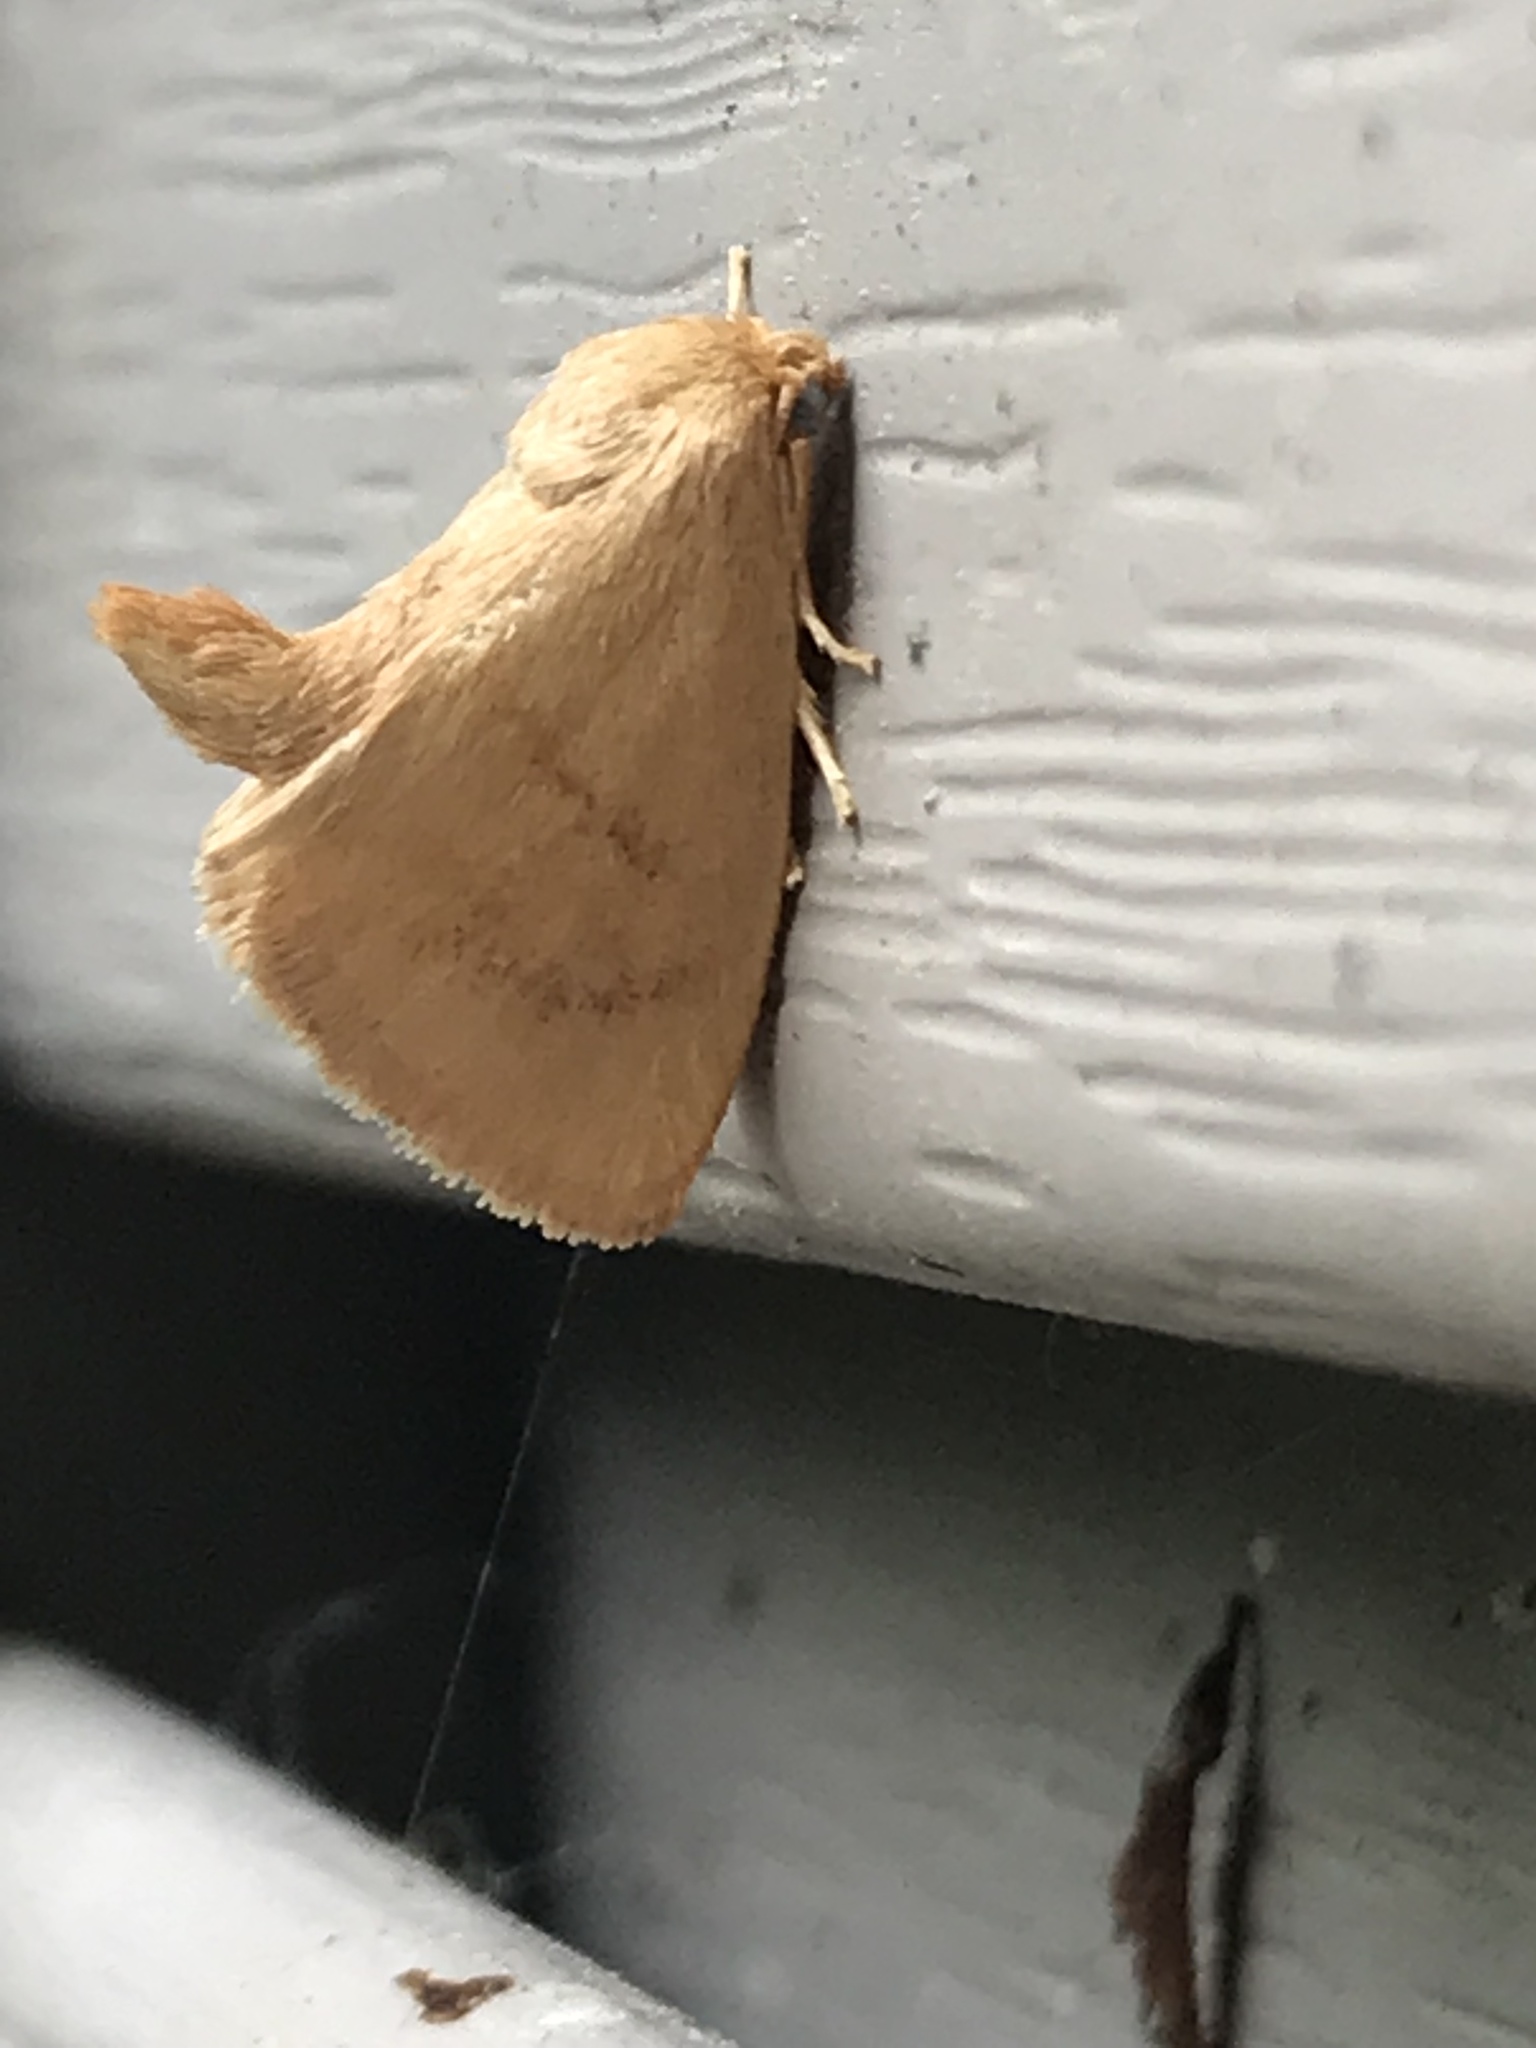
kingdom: Animalia
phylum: Arthropoda
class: Insecta
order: Lepidoptera
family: Limacodidae
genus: Tortricidia
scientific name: Tortricidia pallida
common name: Red-crossed button slug moth
